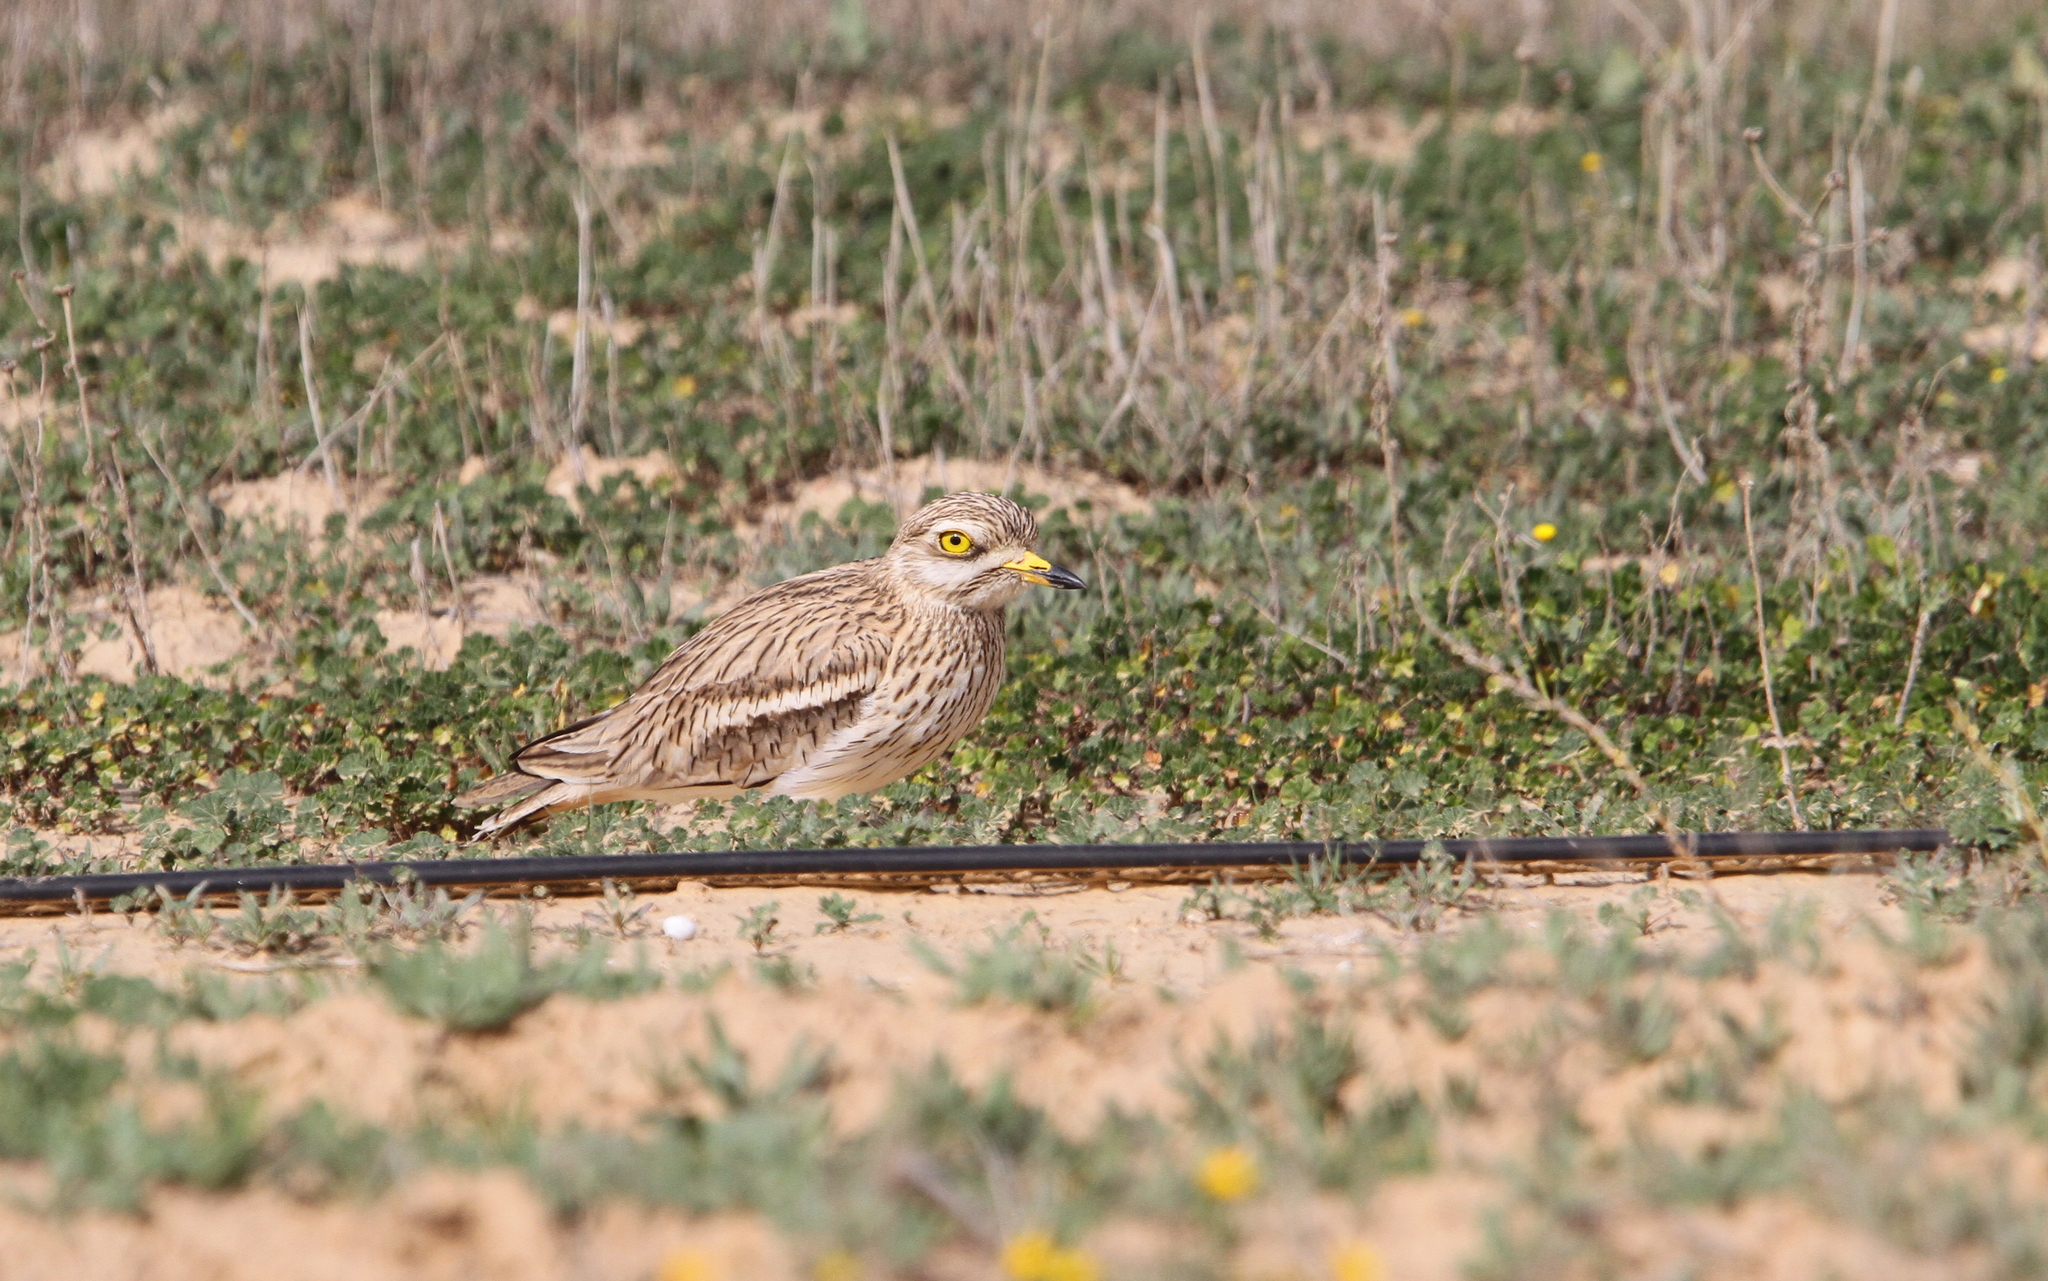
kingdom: Animalia
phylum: Chordata
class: Aves
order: Charadriiformes
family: Burhinidae
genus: Burhinus
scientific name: Burhinus oedicnemus
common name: Eurasian stone-curlew
